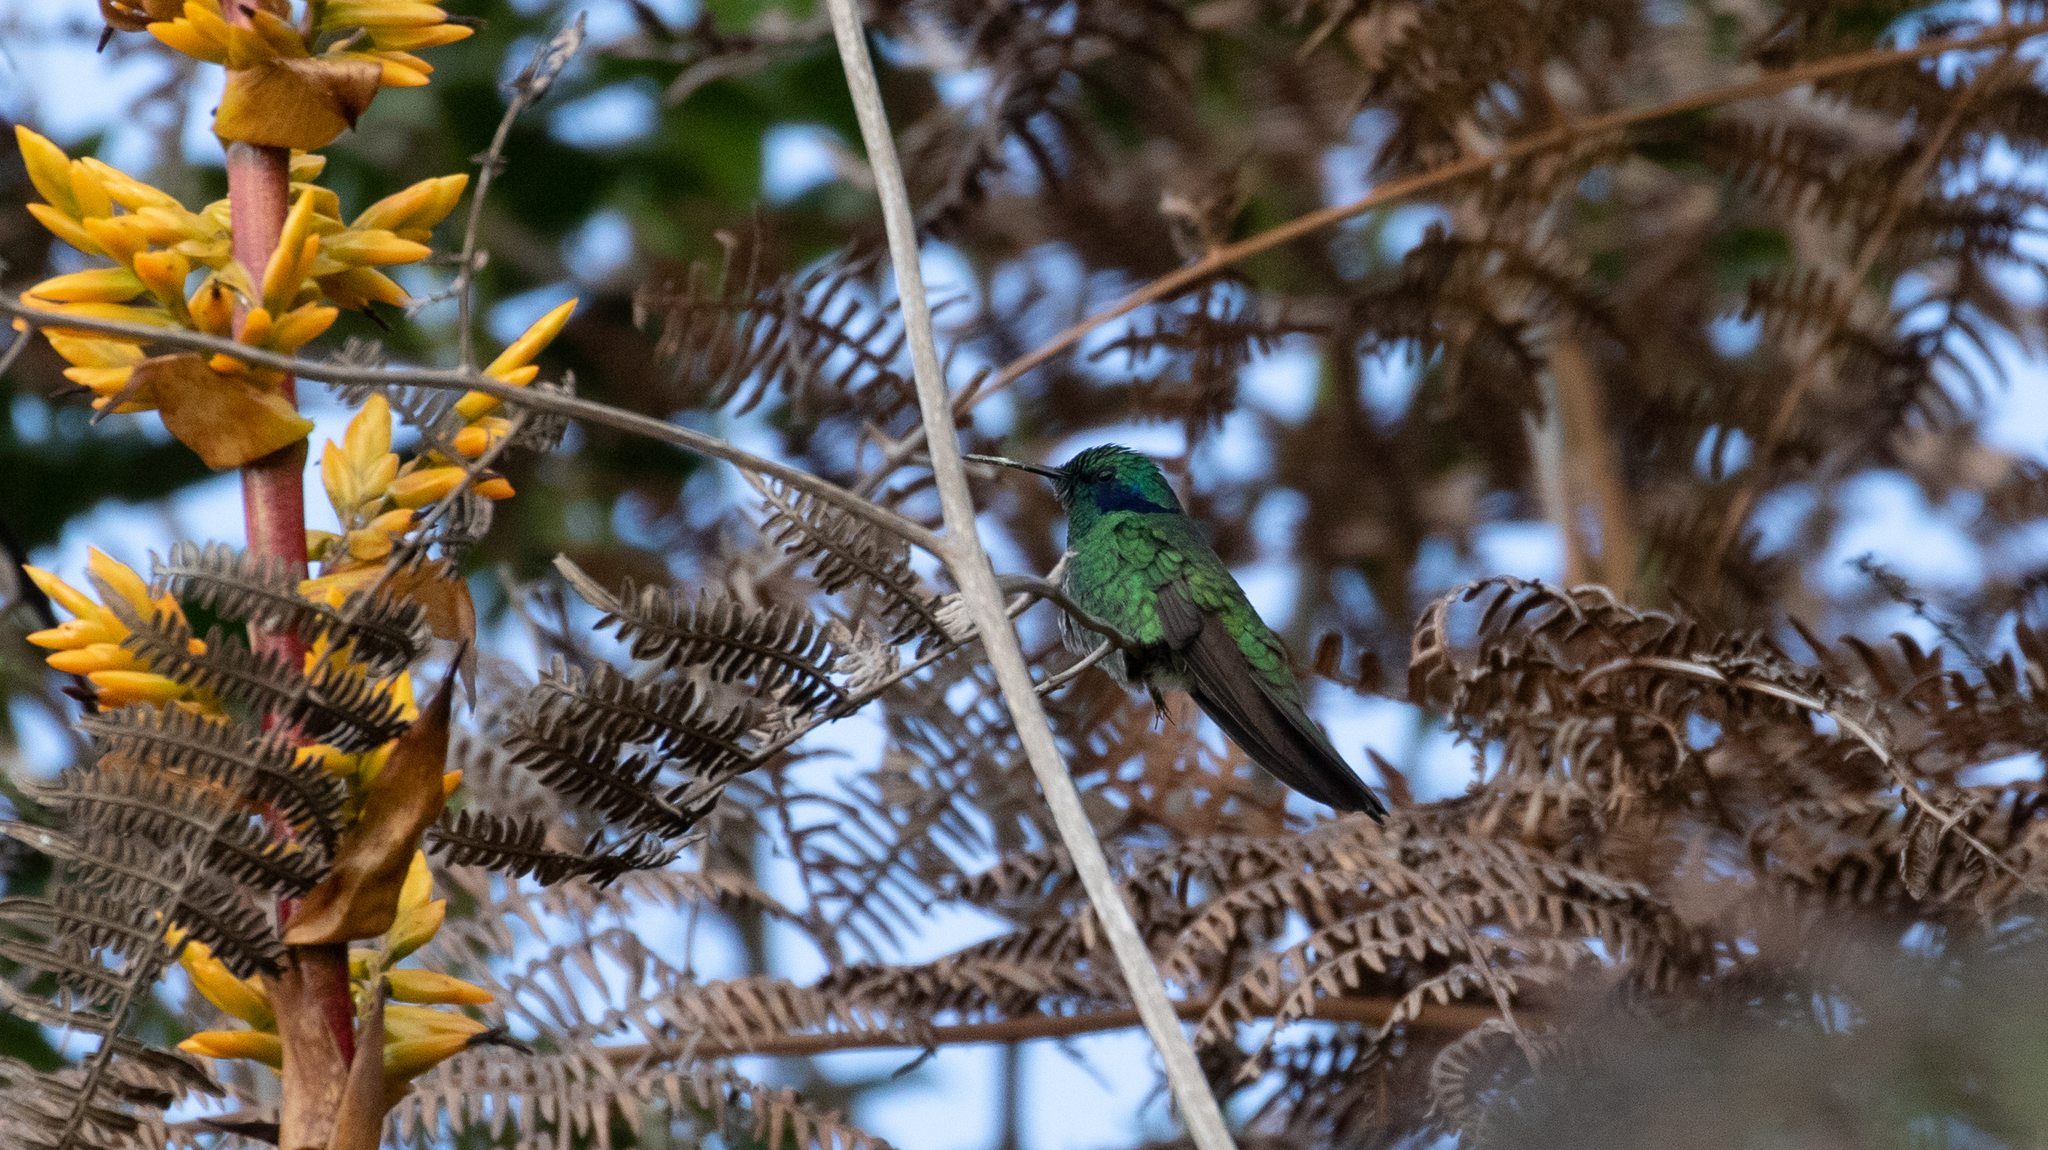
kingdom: Animalia
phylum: Chordata
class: Aves
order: Apodiformes
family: Trochilidae
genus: Colibri
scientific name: Colibri cyanotus
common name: Lesser violetear
